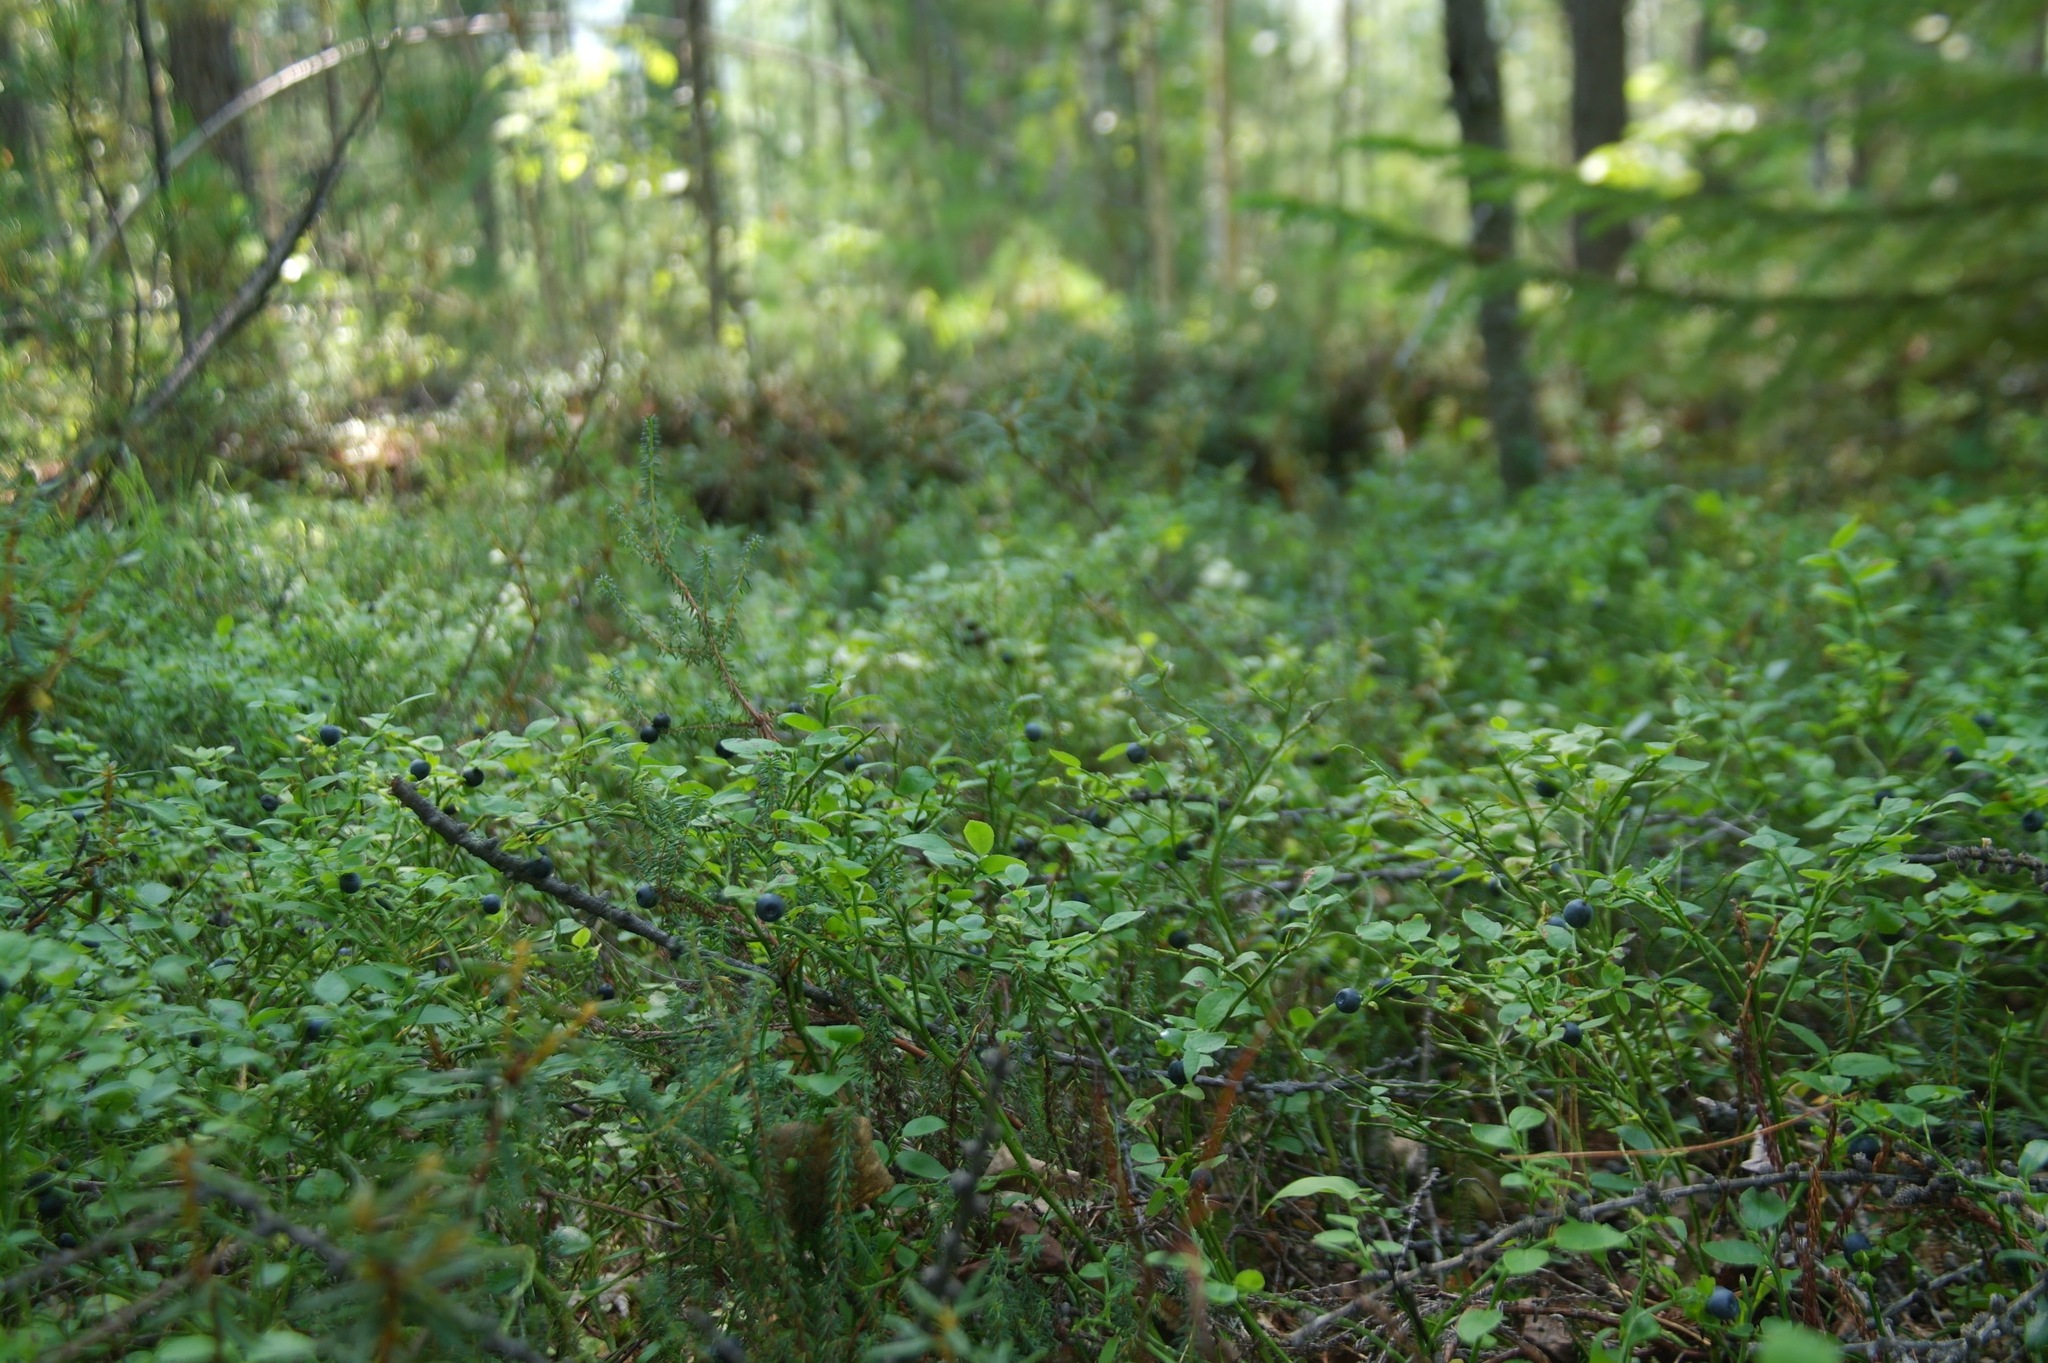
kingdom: Plantae
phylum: Tracheophyta
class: Magnoliopsida
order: Ericales
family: Ericaceae
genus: Vaccinium
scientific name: Vaccinium myrtillus
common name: Bilberry
